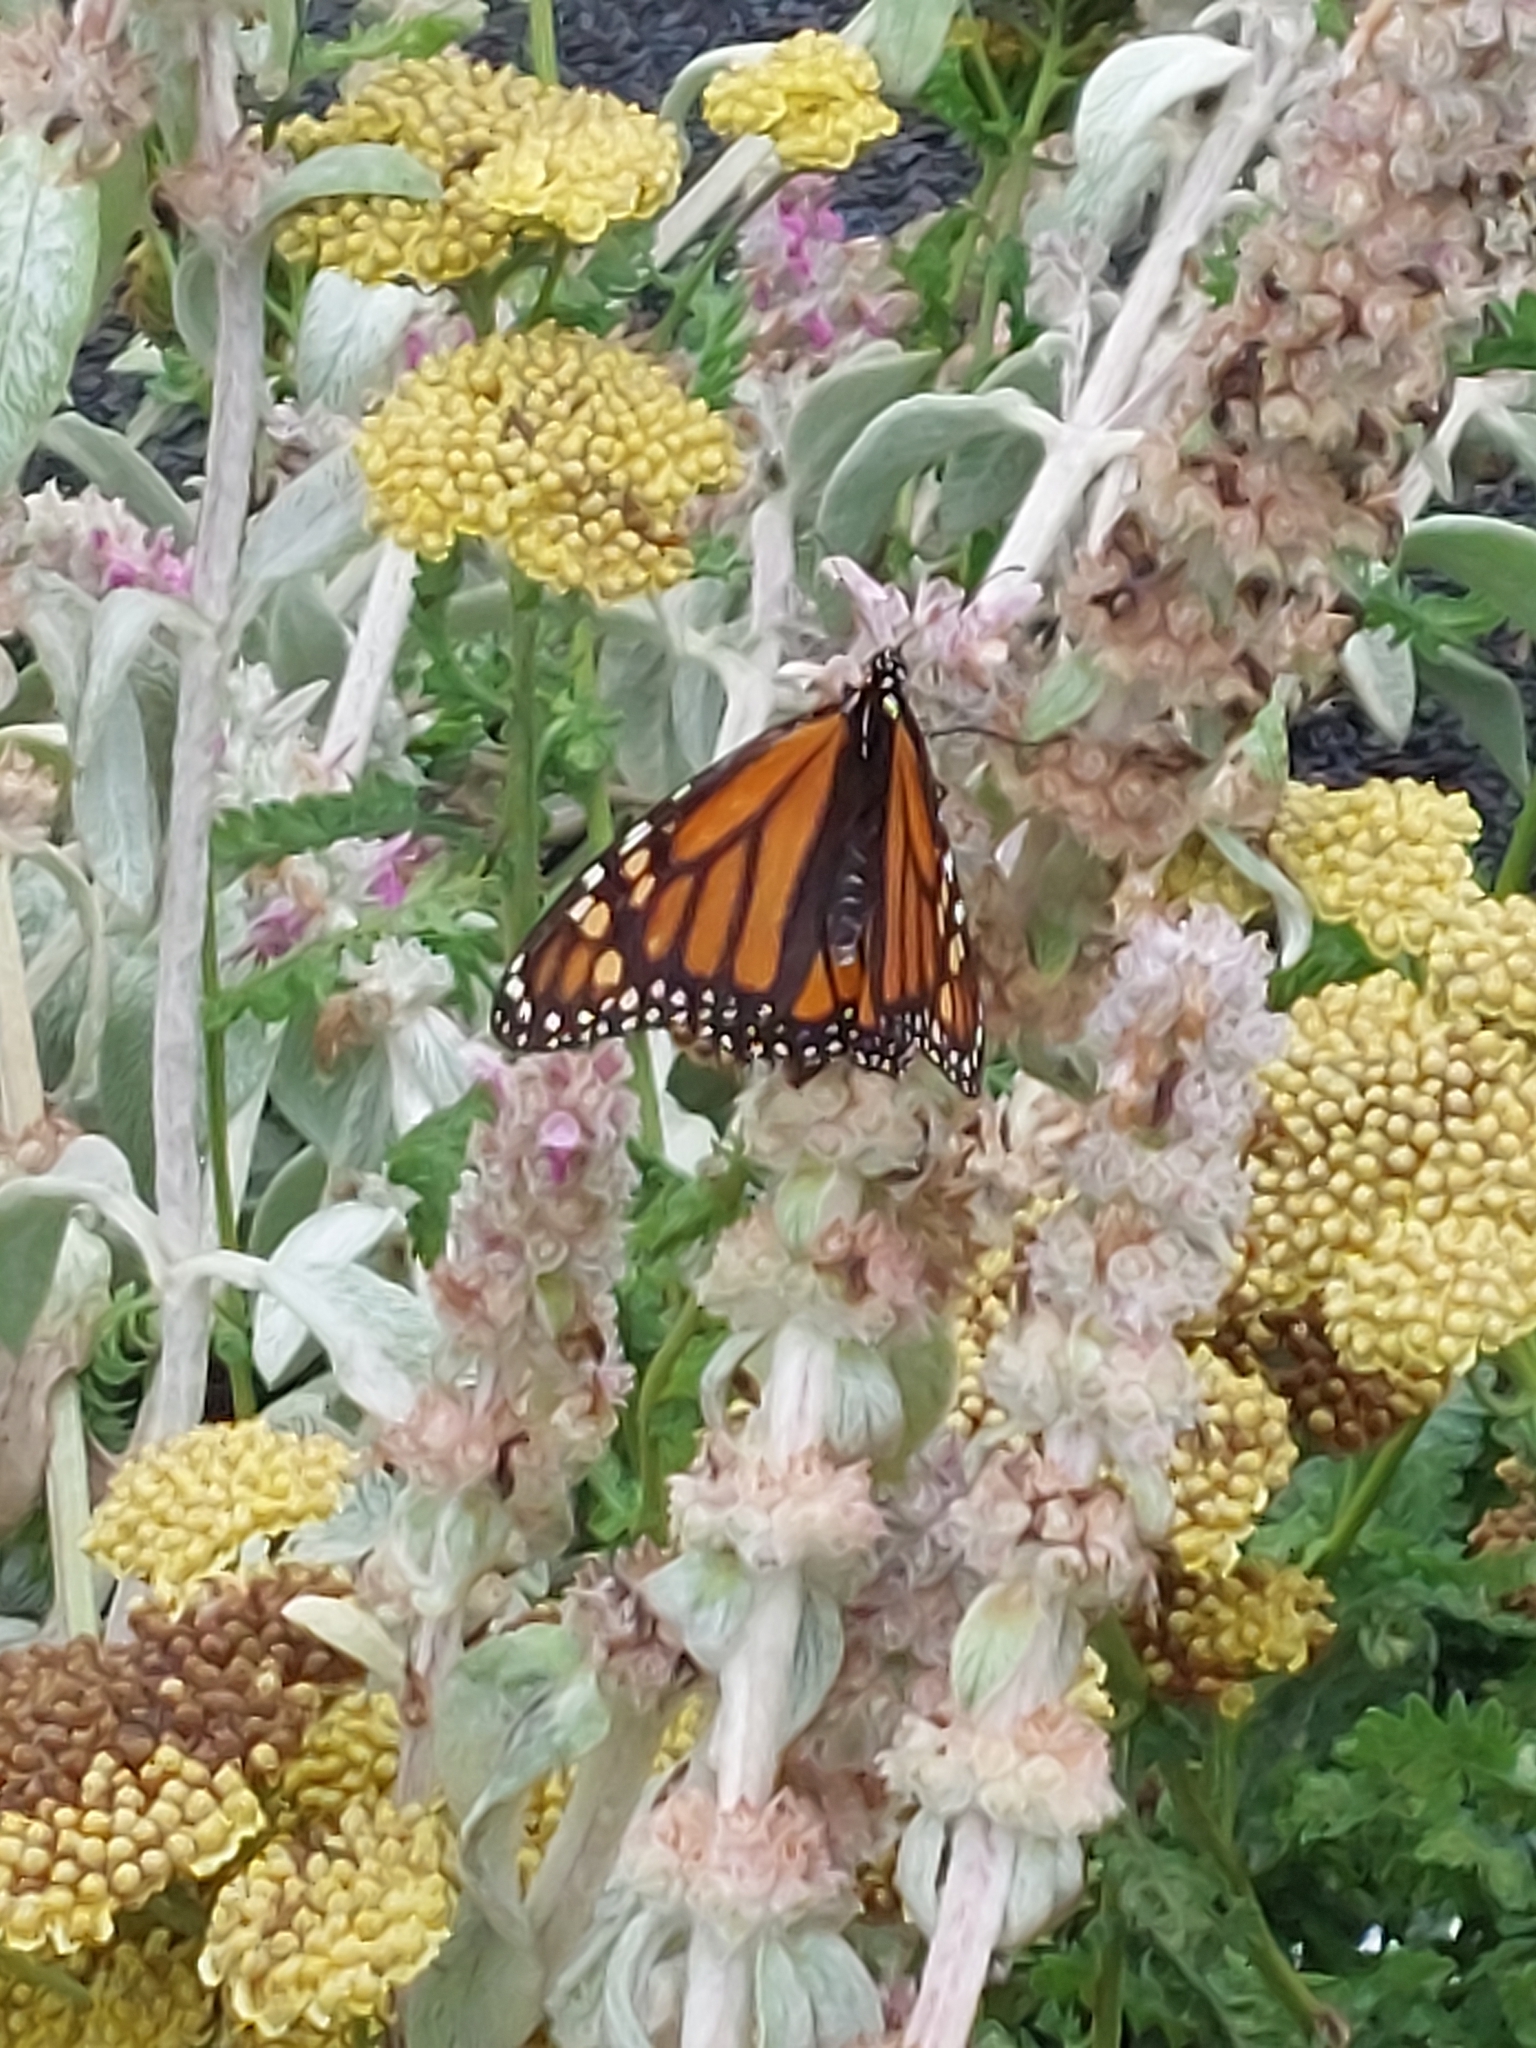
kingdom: Animalia
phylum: Arthropoda
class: Insecta
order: Lepidoptera
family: Nymphalidae
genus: Danaus
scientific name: Danaus plexippus
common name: Monarch
